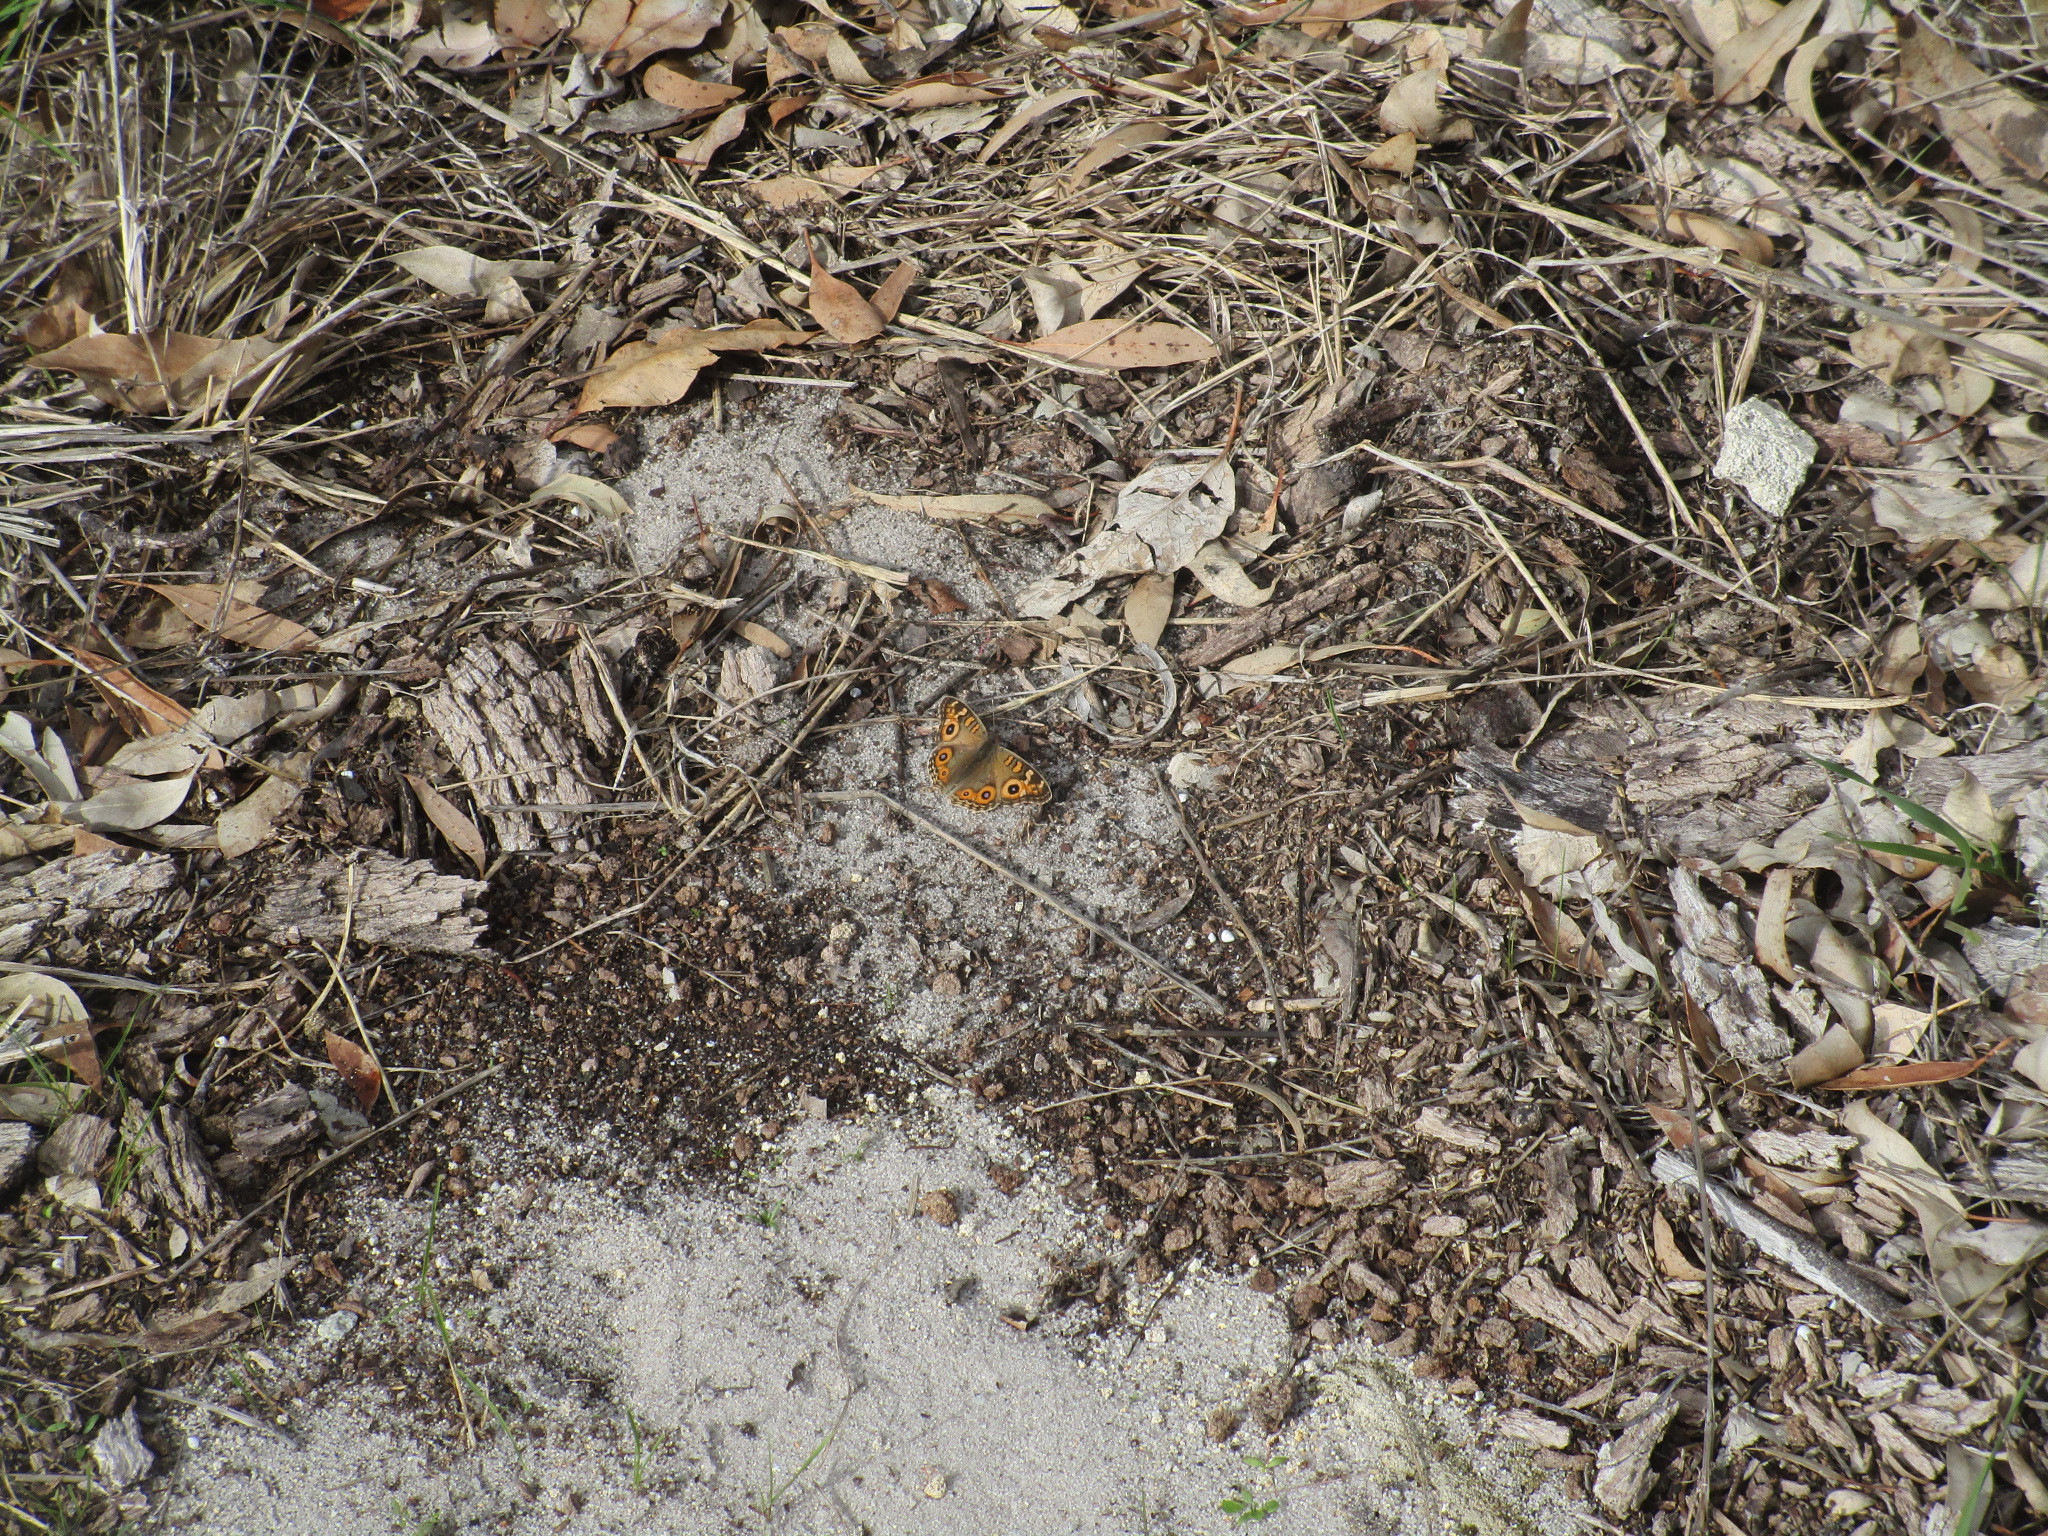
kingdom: Animalia
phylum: Arthropoda
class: Insecta
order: Lepidoptera
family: Nymphalidae
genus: Junonia
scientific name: Junonia villida
